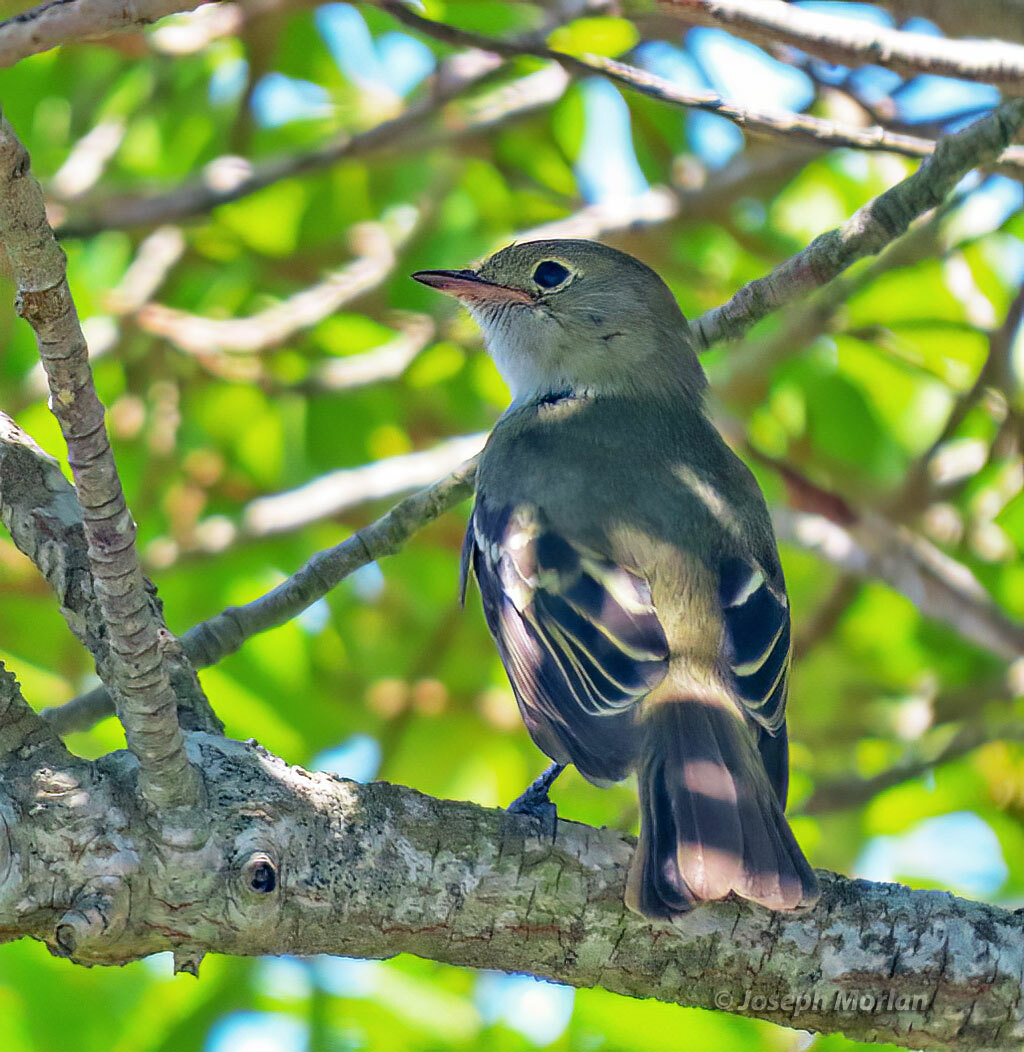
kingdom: Animalia
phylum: Chordata
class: Aves
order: Passeriformes
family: Tyrannidae
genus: Elaenia
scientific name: Elaenia parvirostris
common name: Small-billed elaenia
